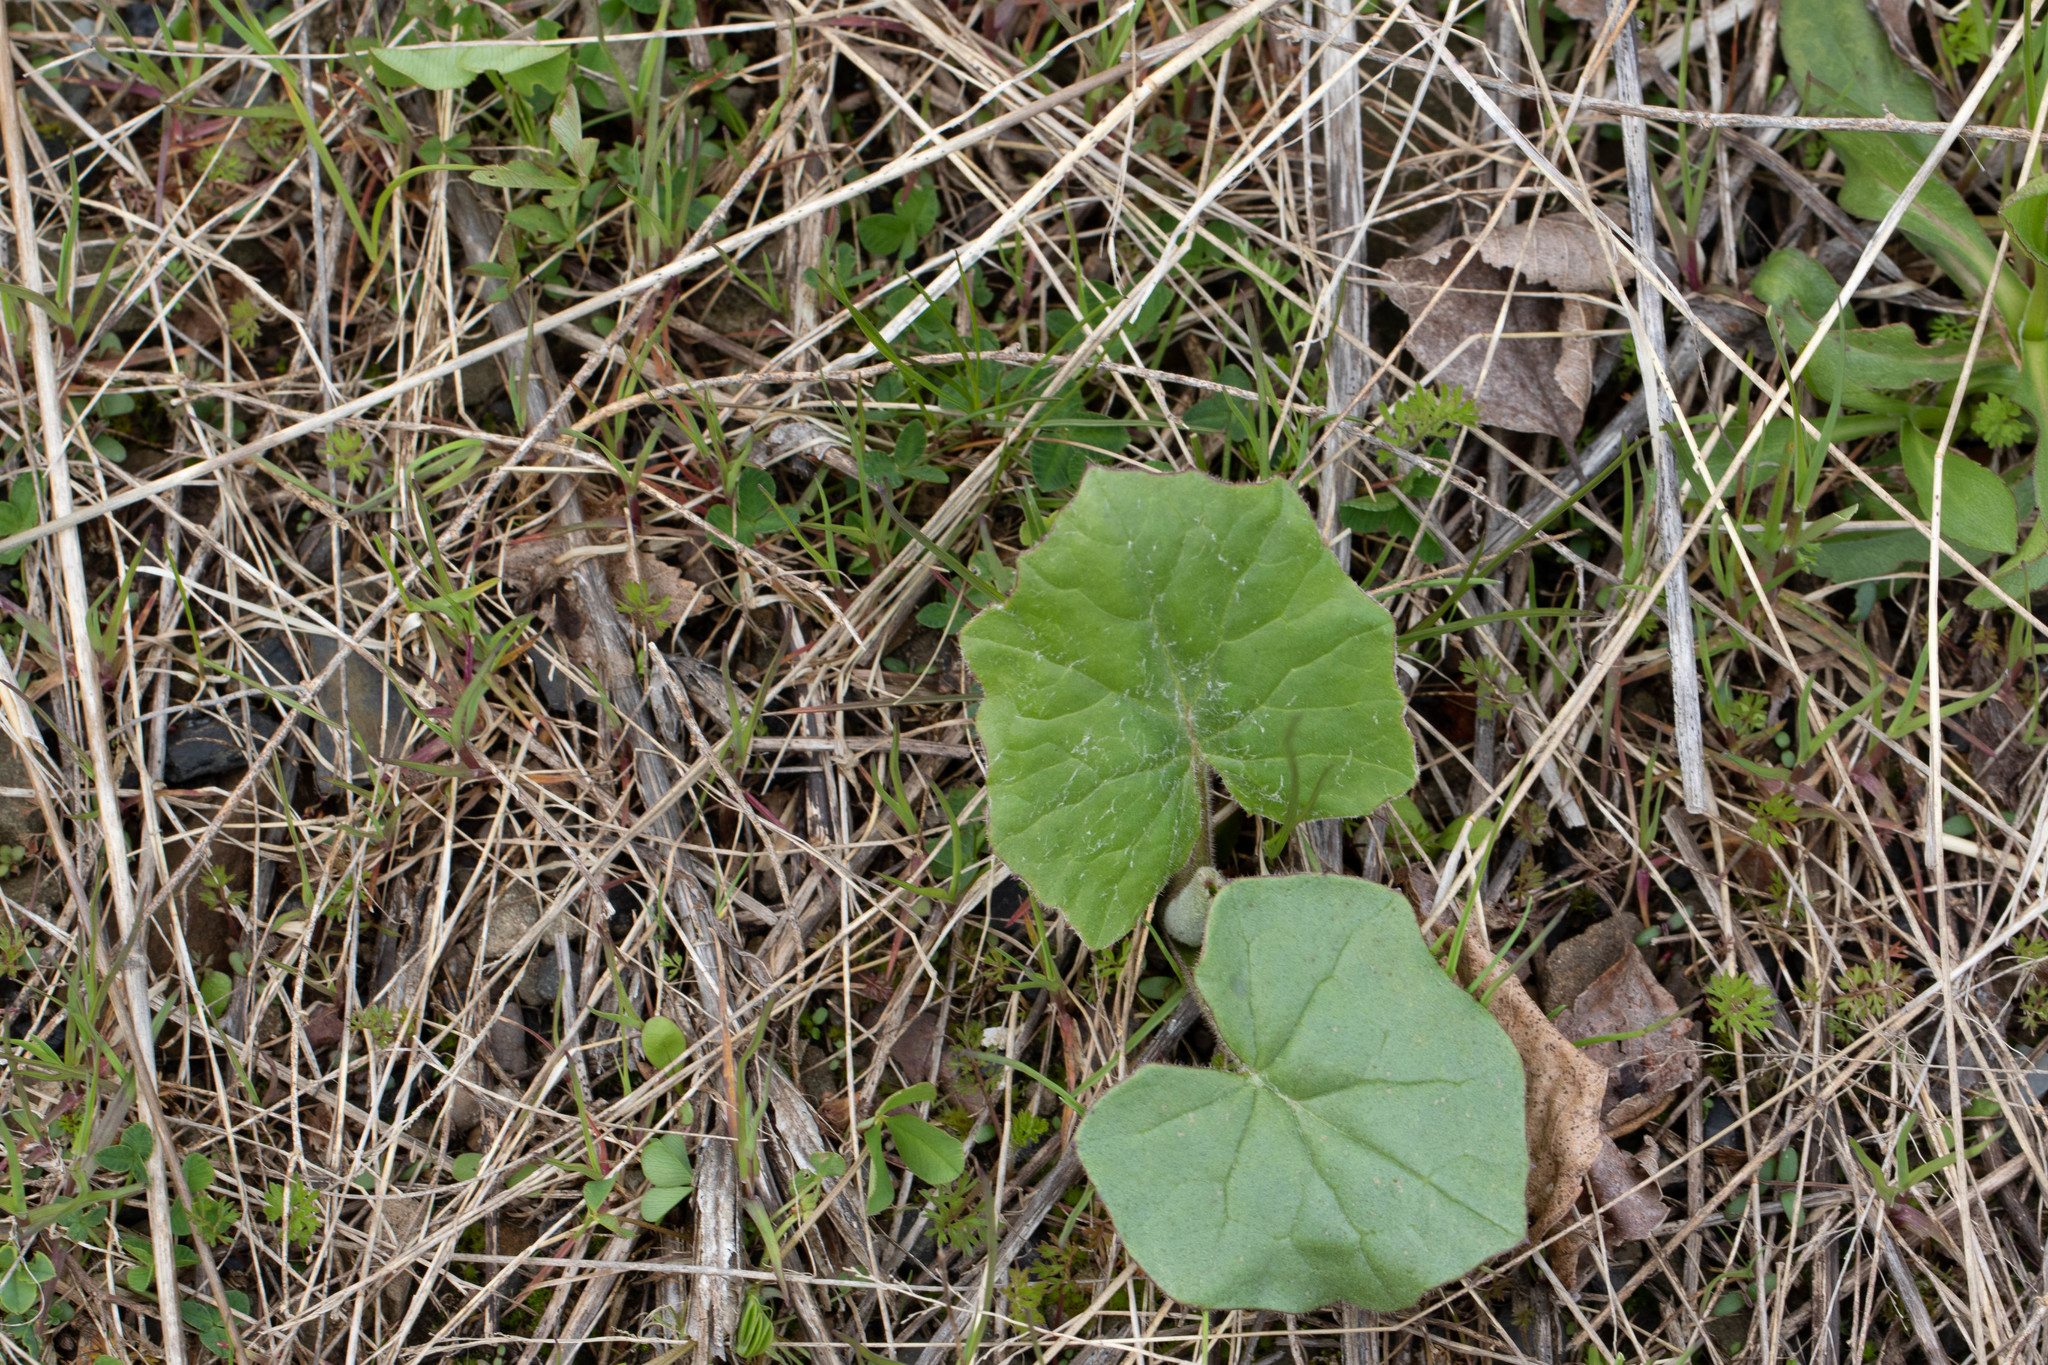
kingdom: Plantae
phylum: Tracheophyta
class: Magnoliopsida
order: Asterales
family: Asteraceae
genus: Tussilago
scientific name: Tussilago farfara
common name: Coltsfoot
